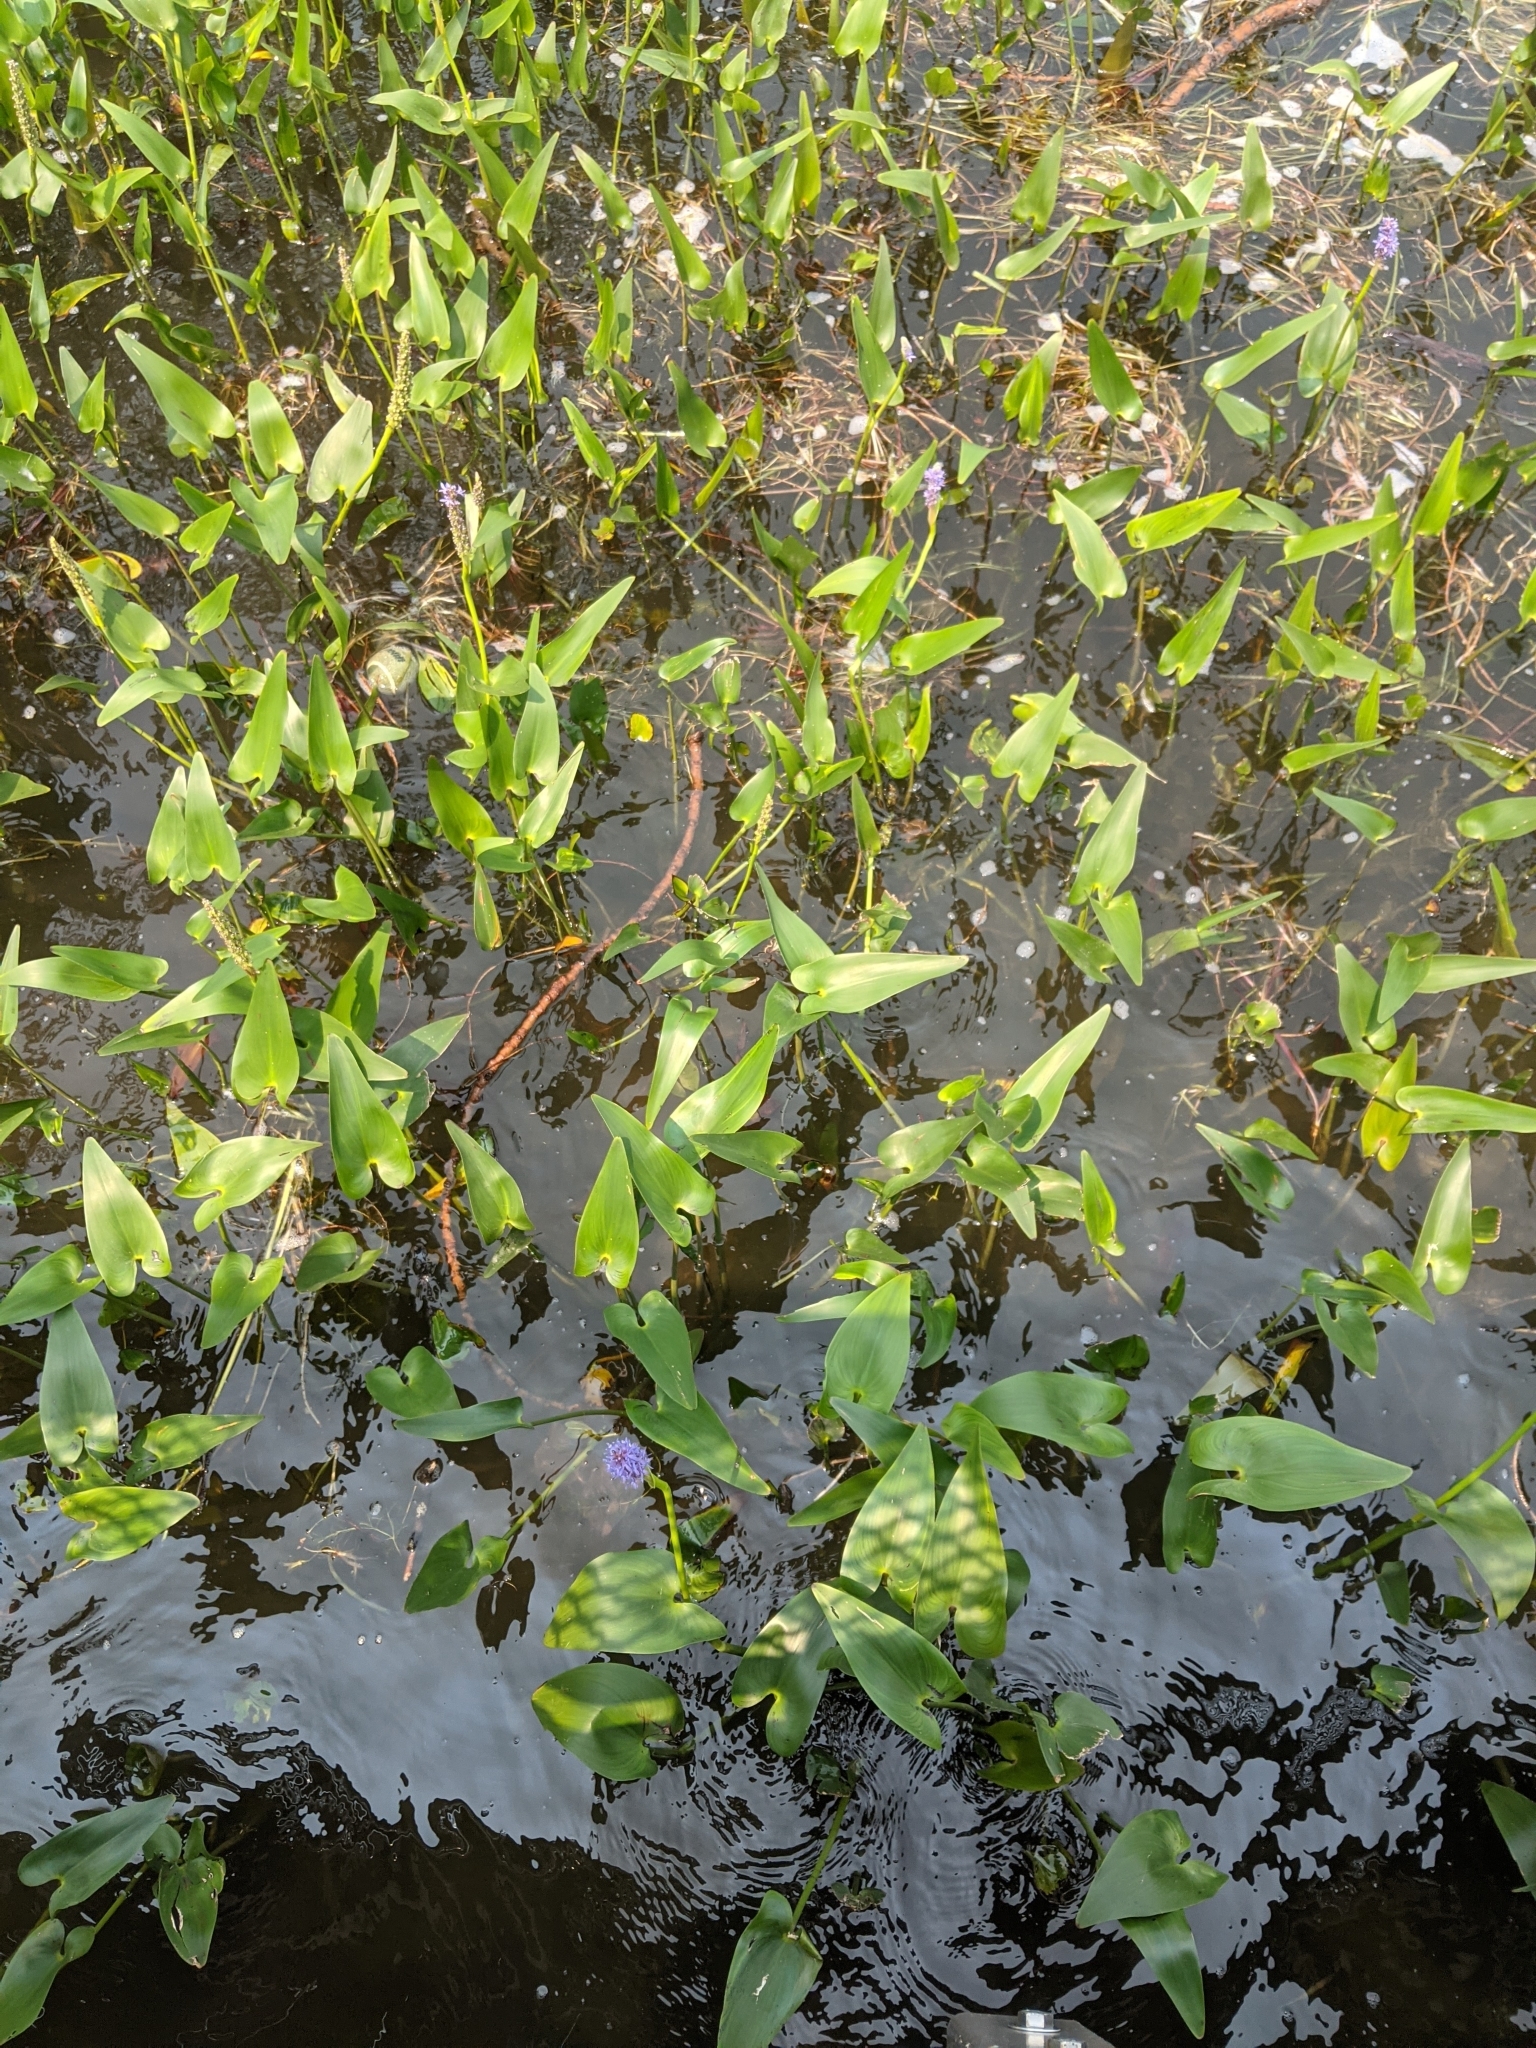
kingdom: Plantae
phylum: Tracheophyta
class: Liliopsida
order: Commelinales
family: Pontederiaceae
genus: Pontederia
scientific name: Pontederia cordata
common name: Pickerelweed
